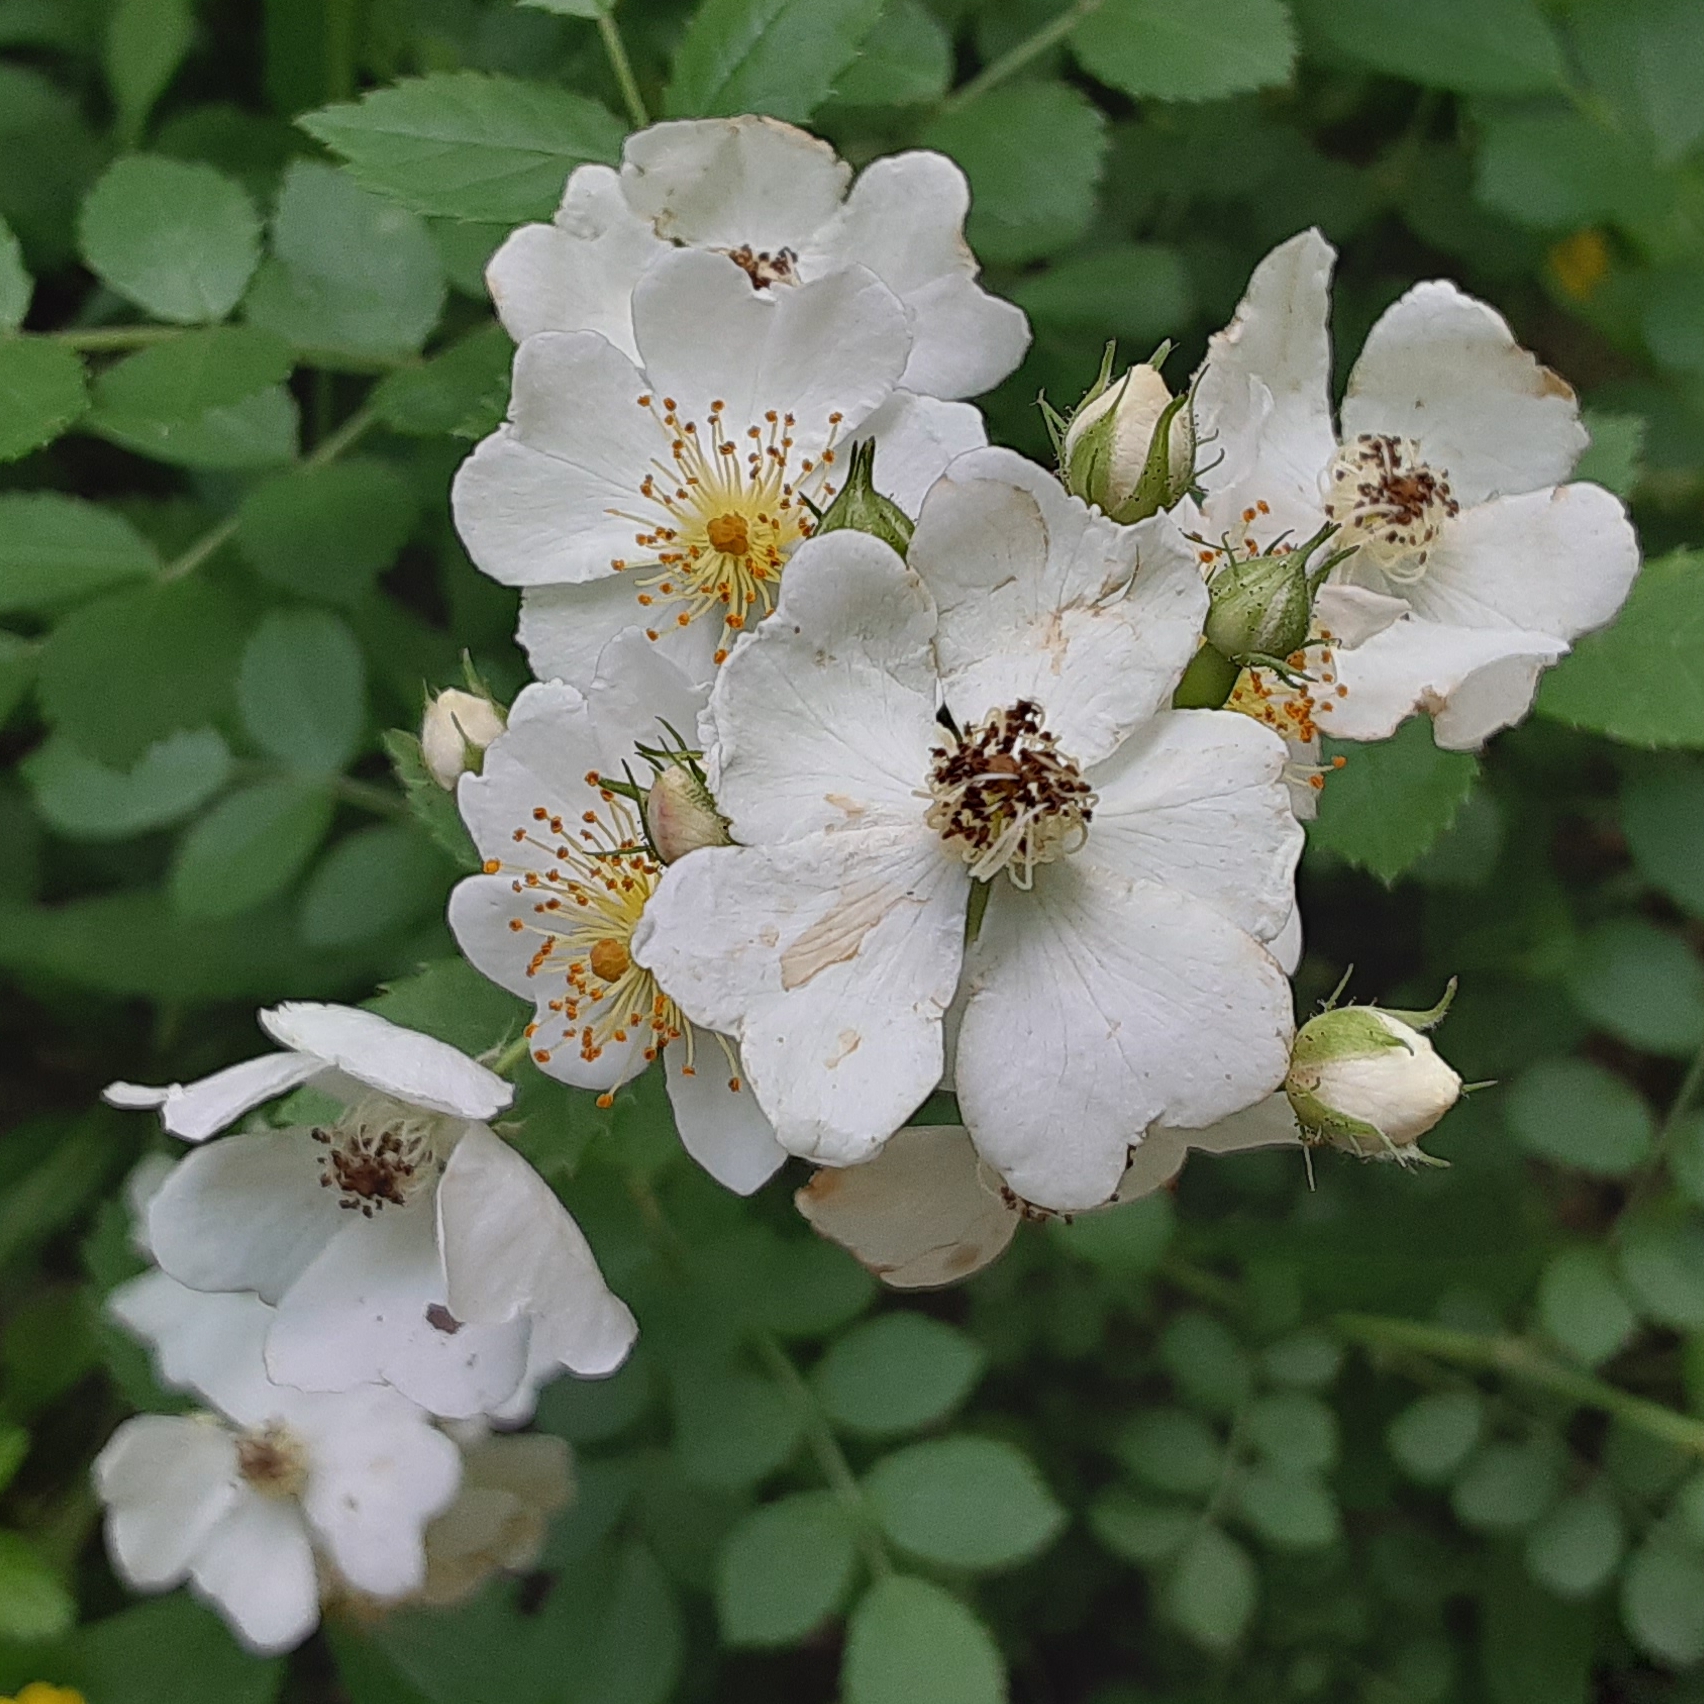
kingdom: Plantae
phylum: Tracheophyta
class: Magnoliopsida
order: Rosales
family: Rosaceae
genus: Rosa
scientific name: Rosa multiflora
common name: Multiflora rose
